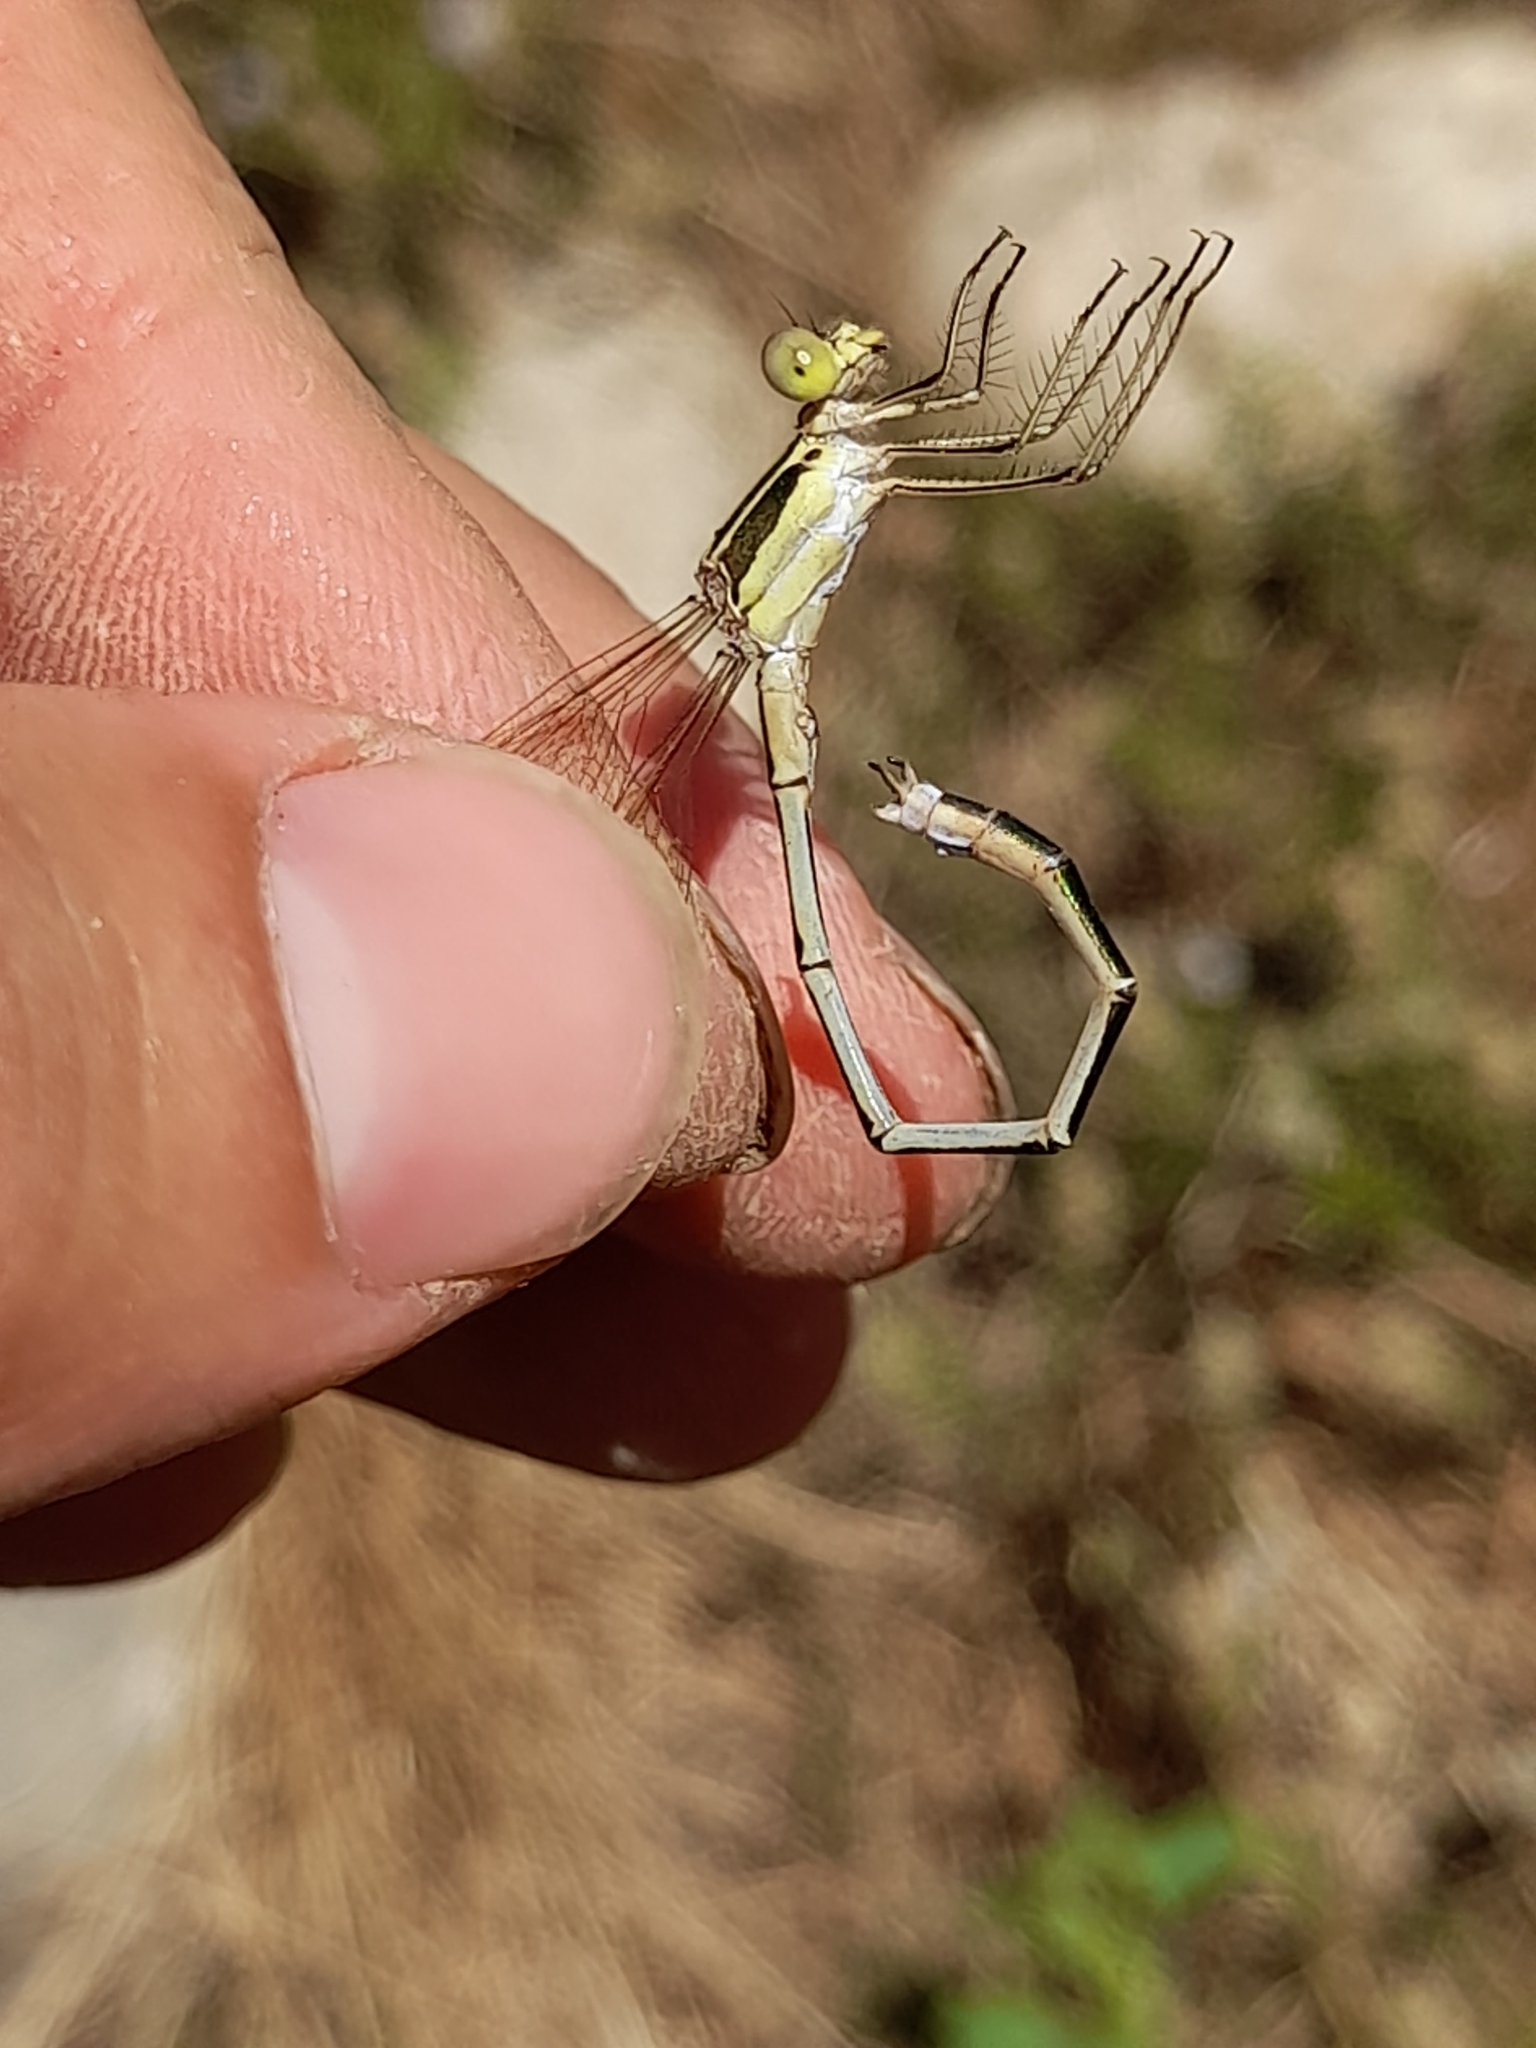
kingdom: Animalia
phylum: Arthropoda
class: Insecta
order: Odonata
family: Lestidae
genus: Lestes
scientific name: Lestes barbarus
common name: Migrant spreadwing
